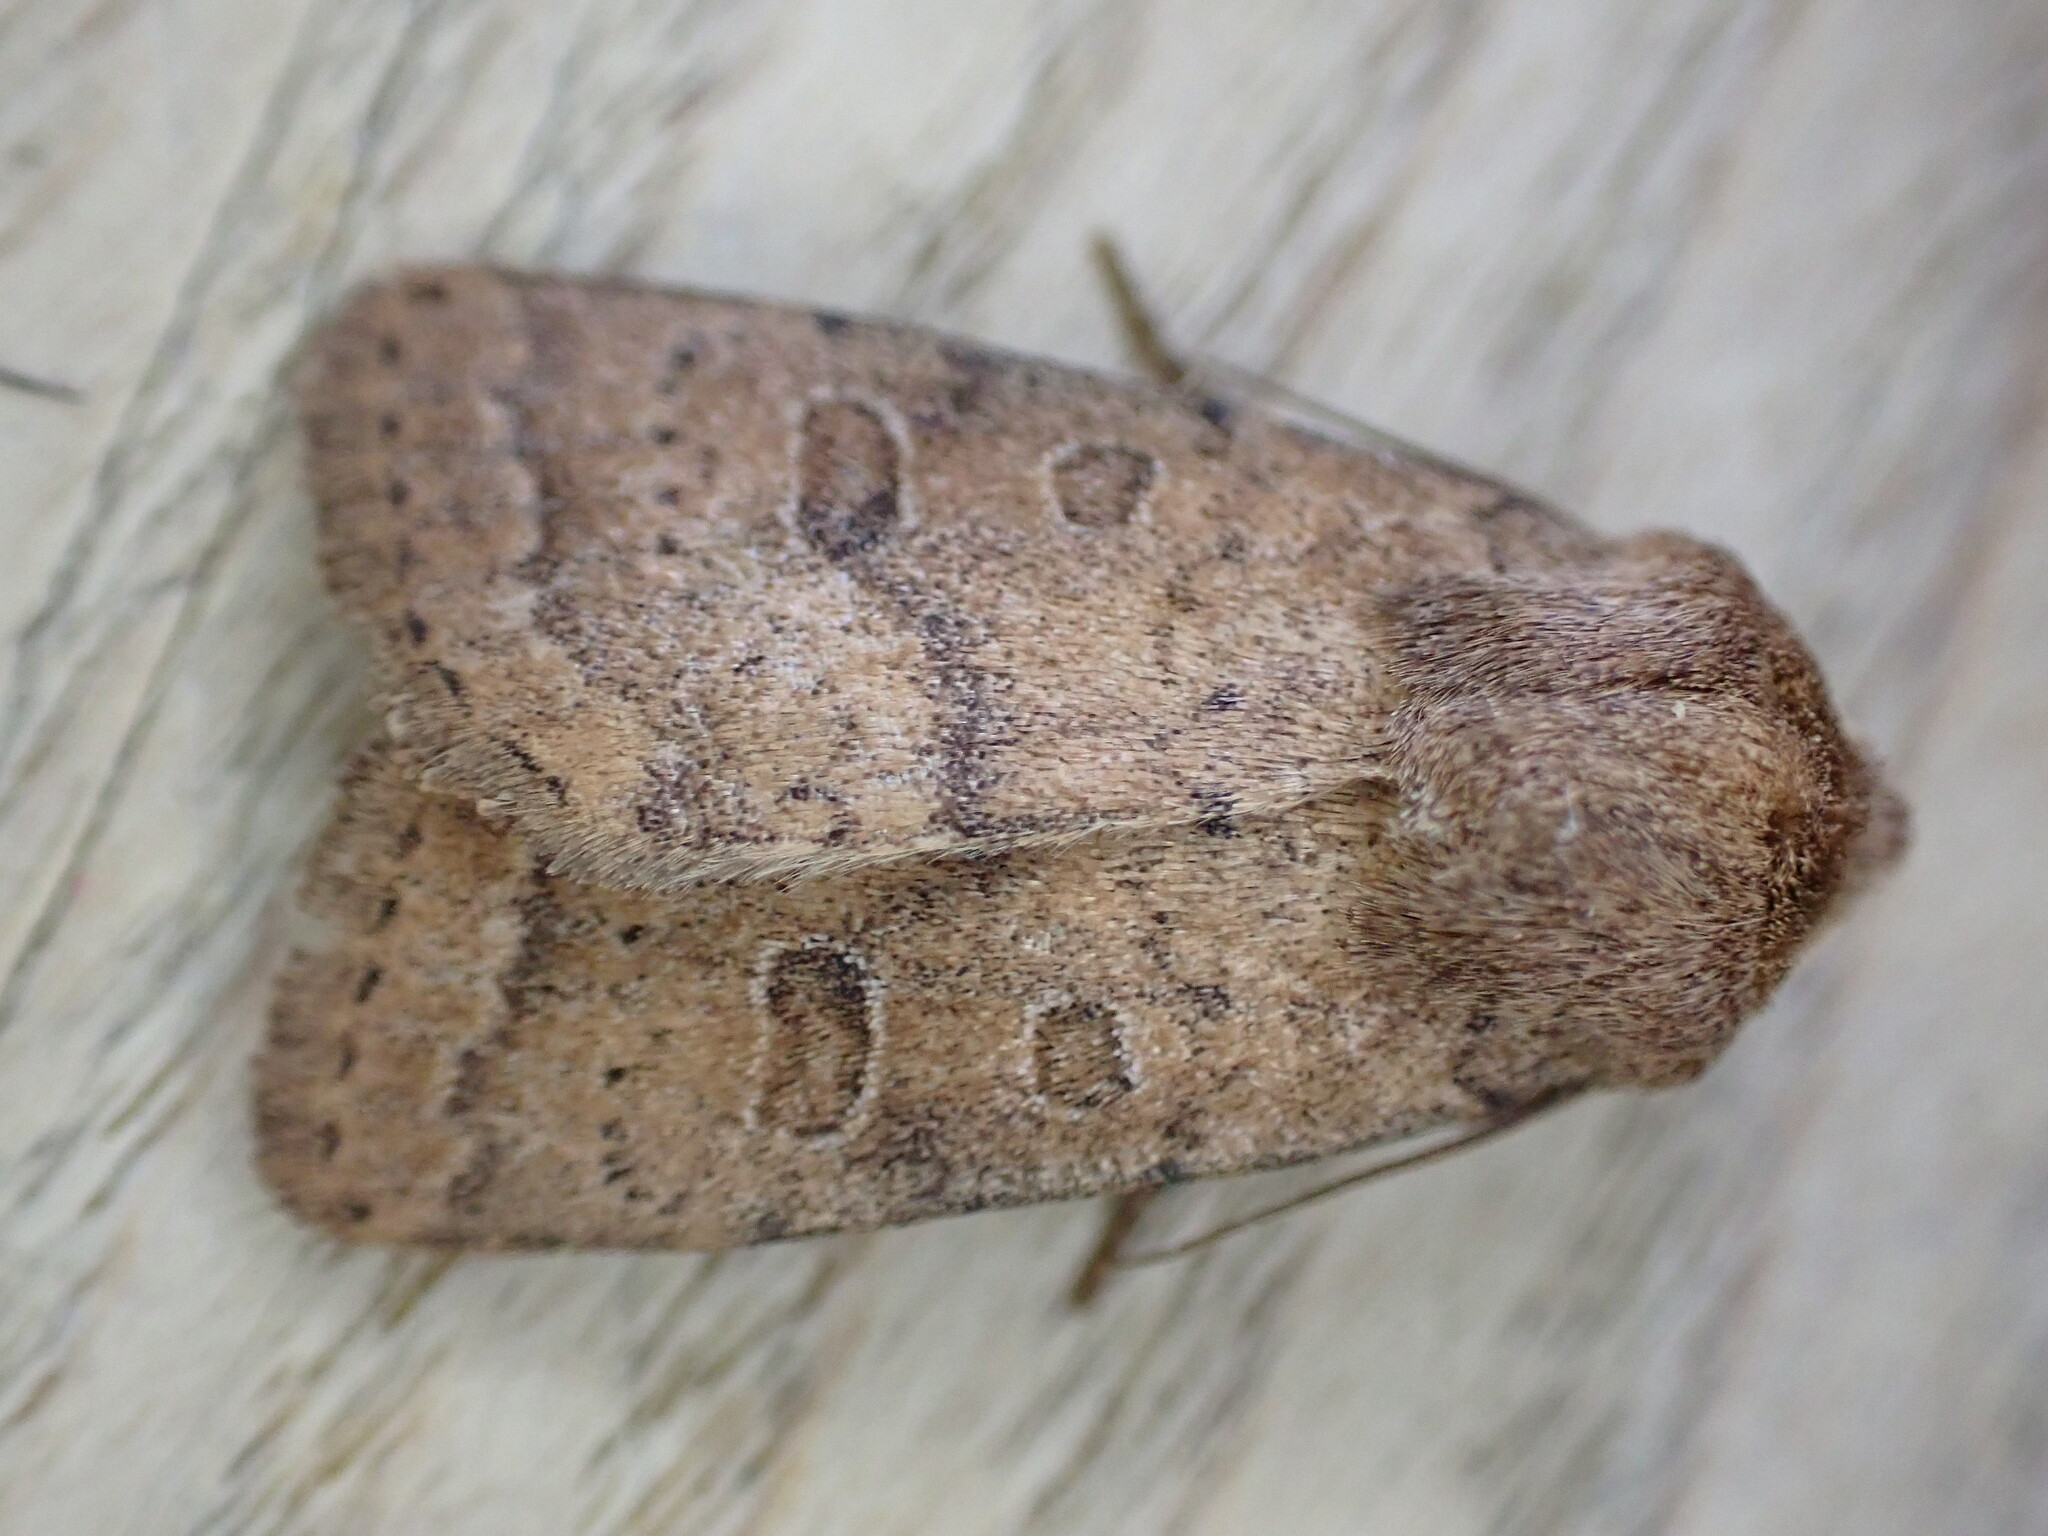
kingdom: Animalia
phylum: Arthropoda
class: Insecta
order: Lepidoptera
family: Noctuidae
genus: Hoplodrina
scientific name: Hoplodrina octogenaria
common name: Uncertain
